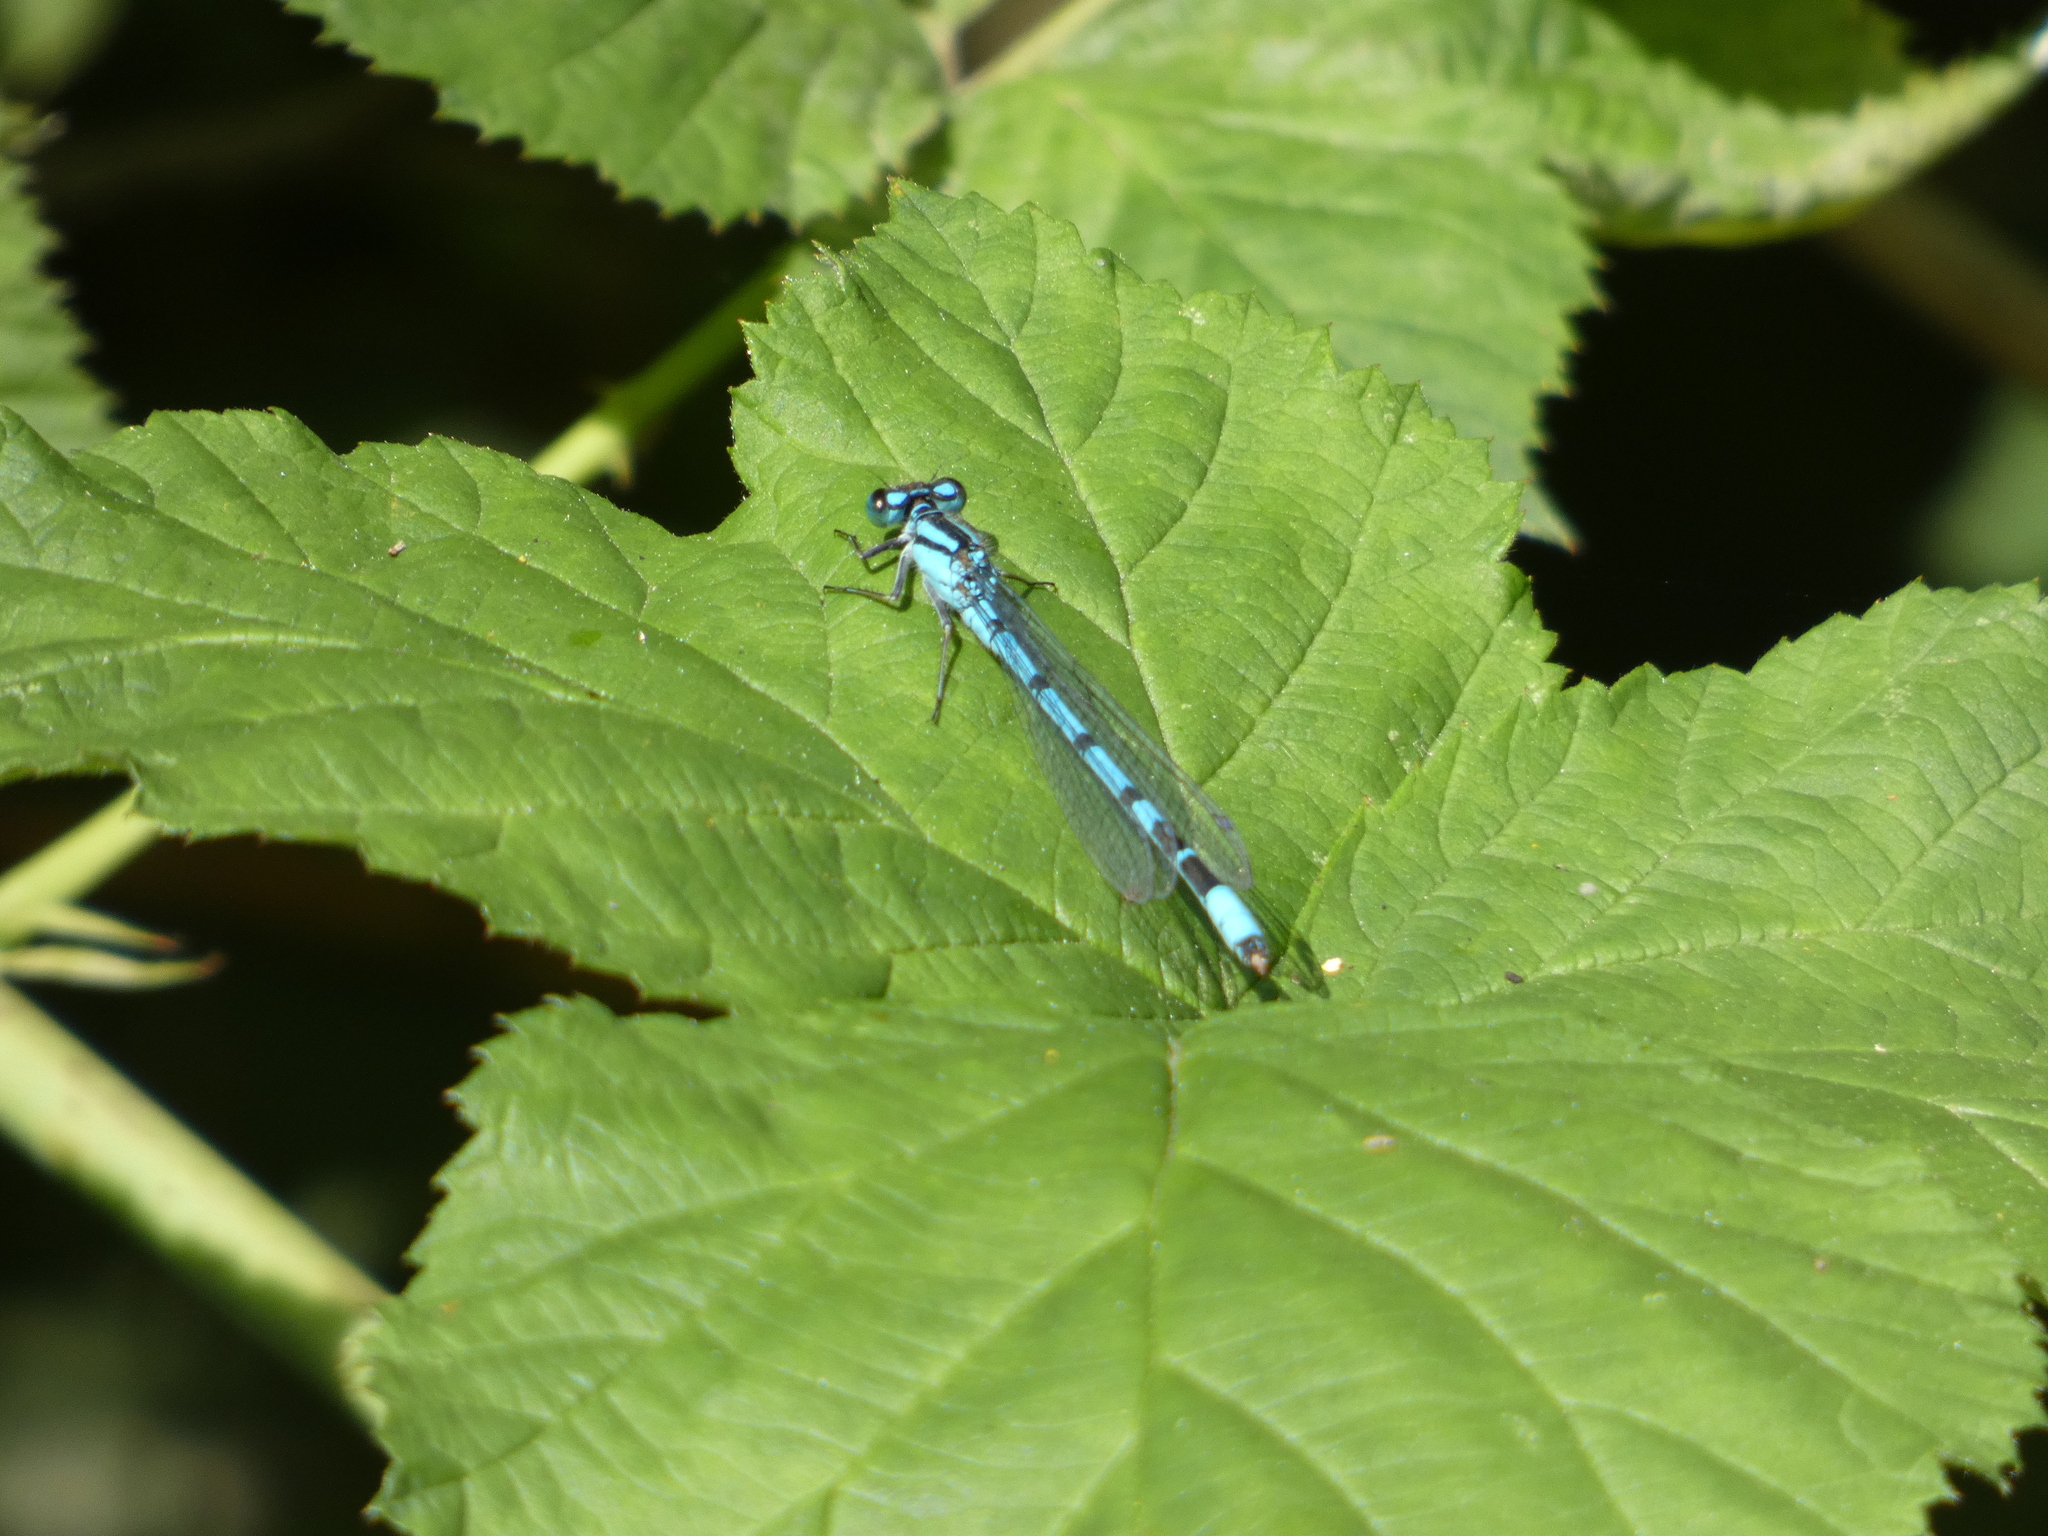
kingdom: Animalia
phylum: Arthropoda
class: Insecta
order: Odonata
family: Coenagrionidae
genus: Enallagma
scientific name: Enallagma cyathigerum
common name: Common blue damselfly
